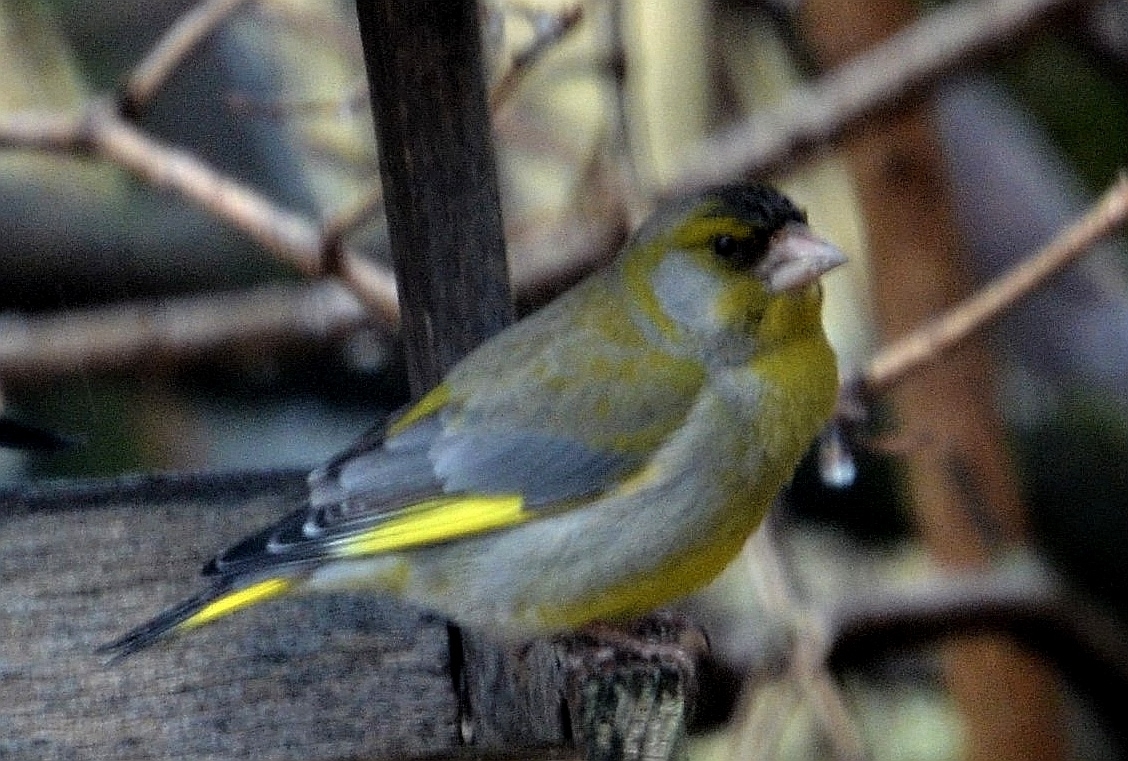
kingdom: Plantae
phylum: Tracheophyta
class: Liliopsida
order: Poales
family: Poaceae
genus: Chloris
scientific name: Chloris chloris
